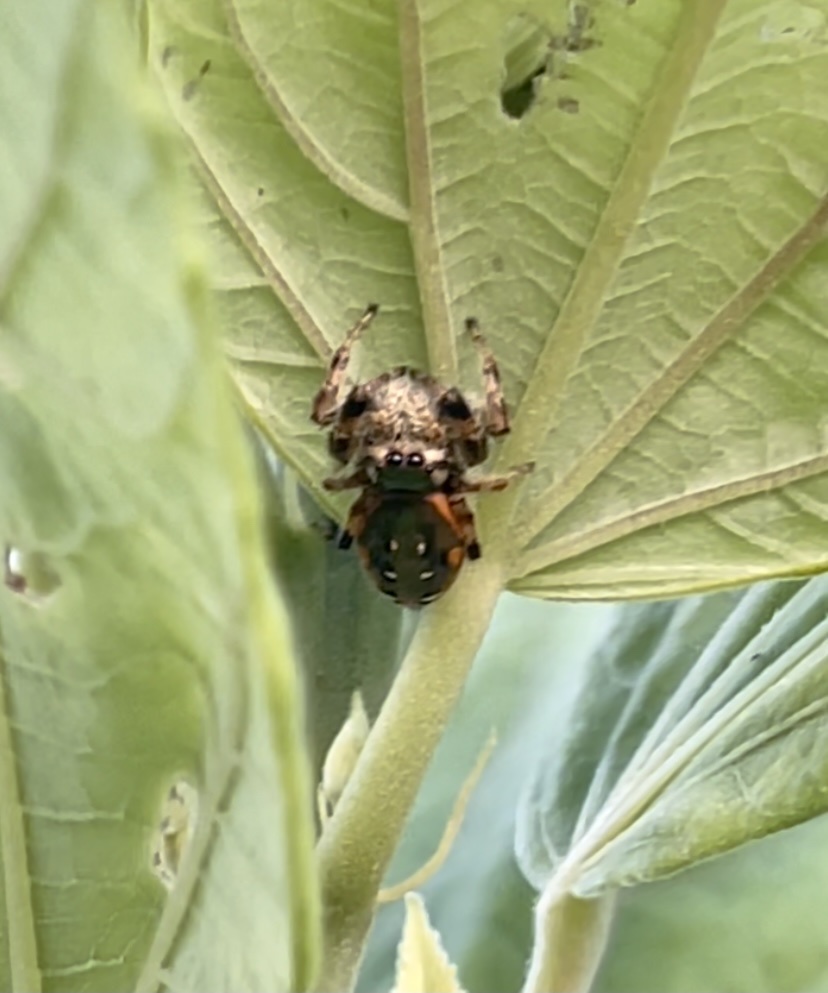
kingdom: Animalia
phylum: Arthropoda
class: Arachnida
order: Araneae
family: Salticidae
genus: Paraphidippus
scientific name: Paraphidippus aurantius
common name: Jumping spiders
